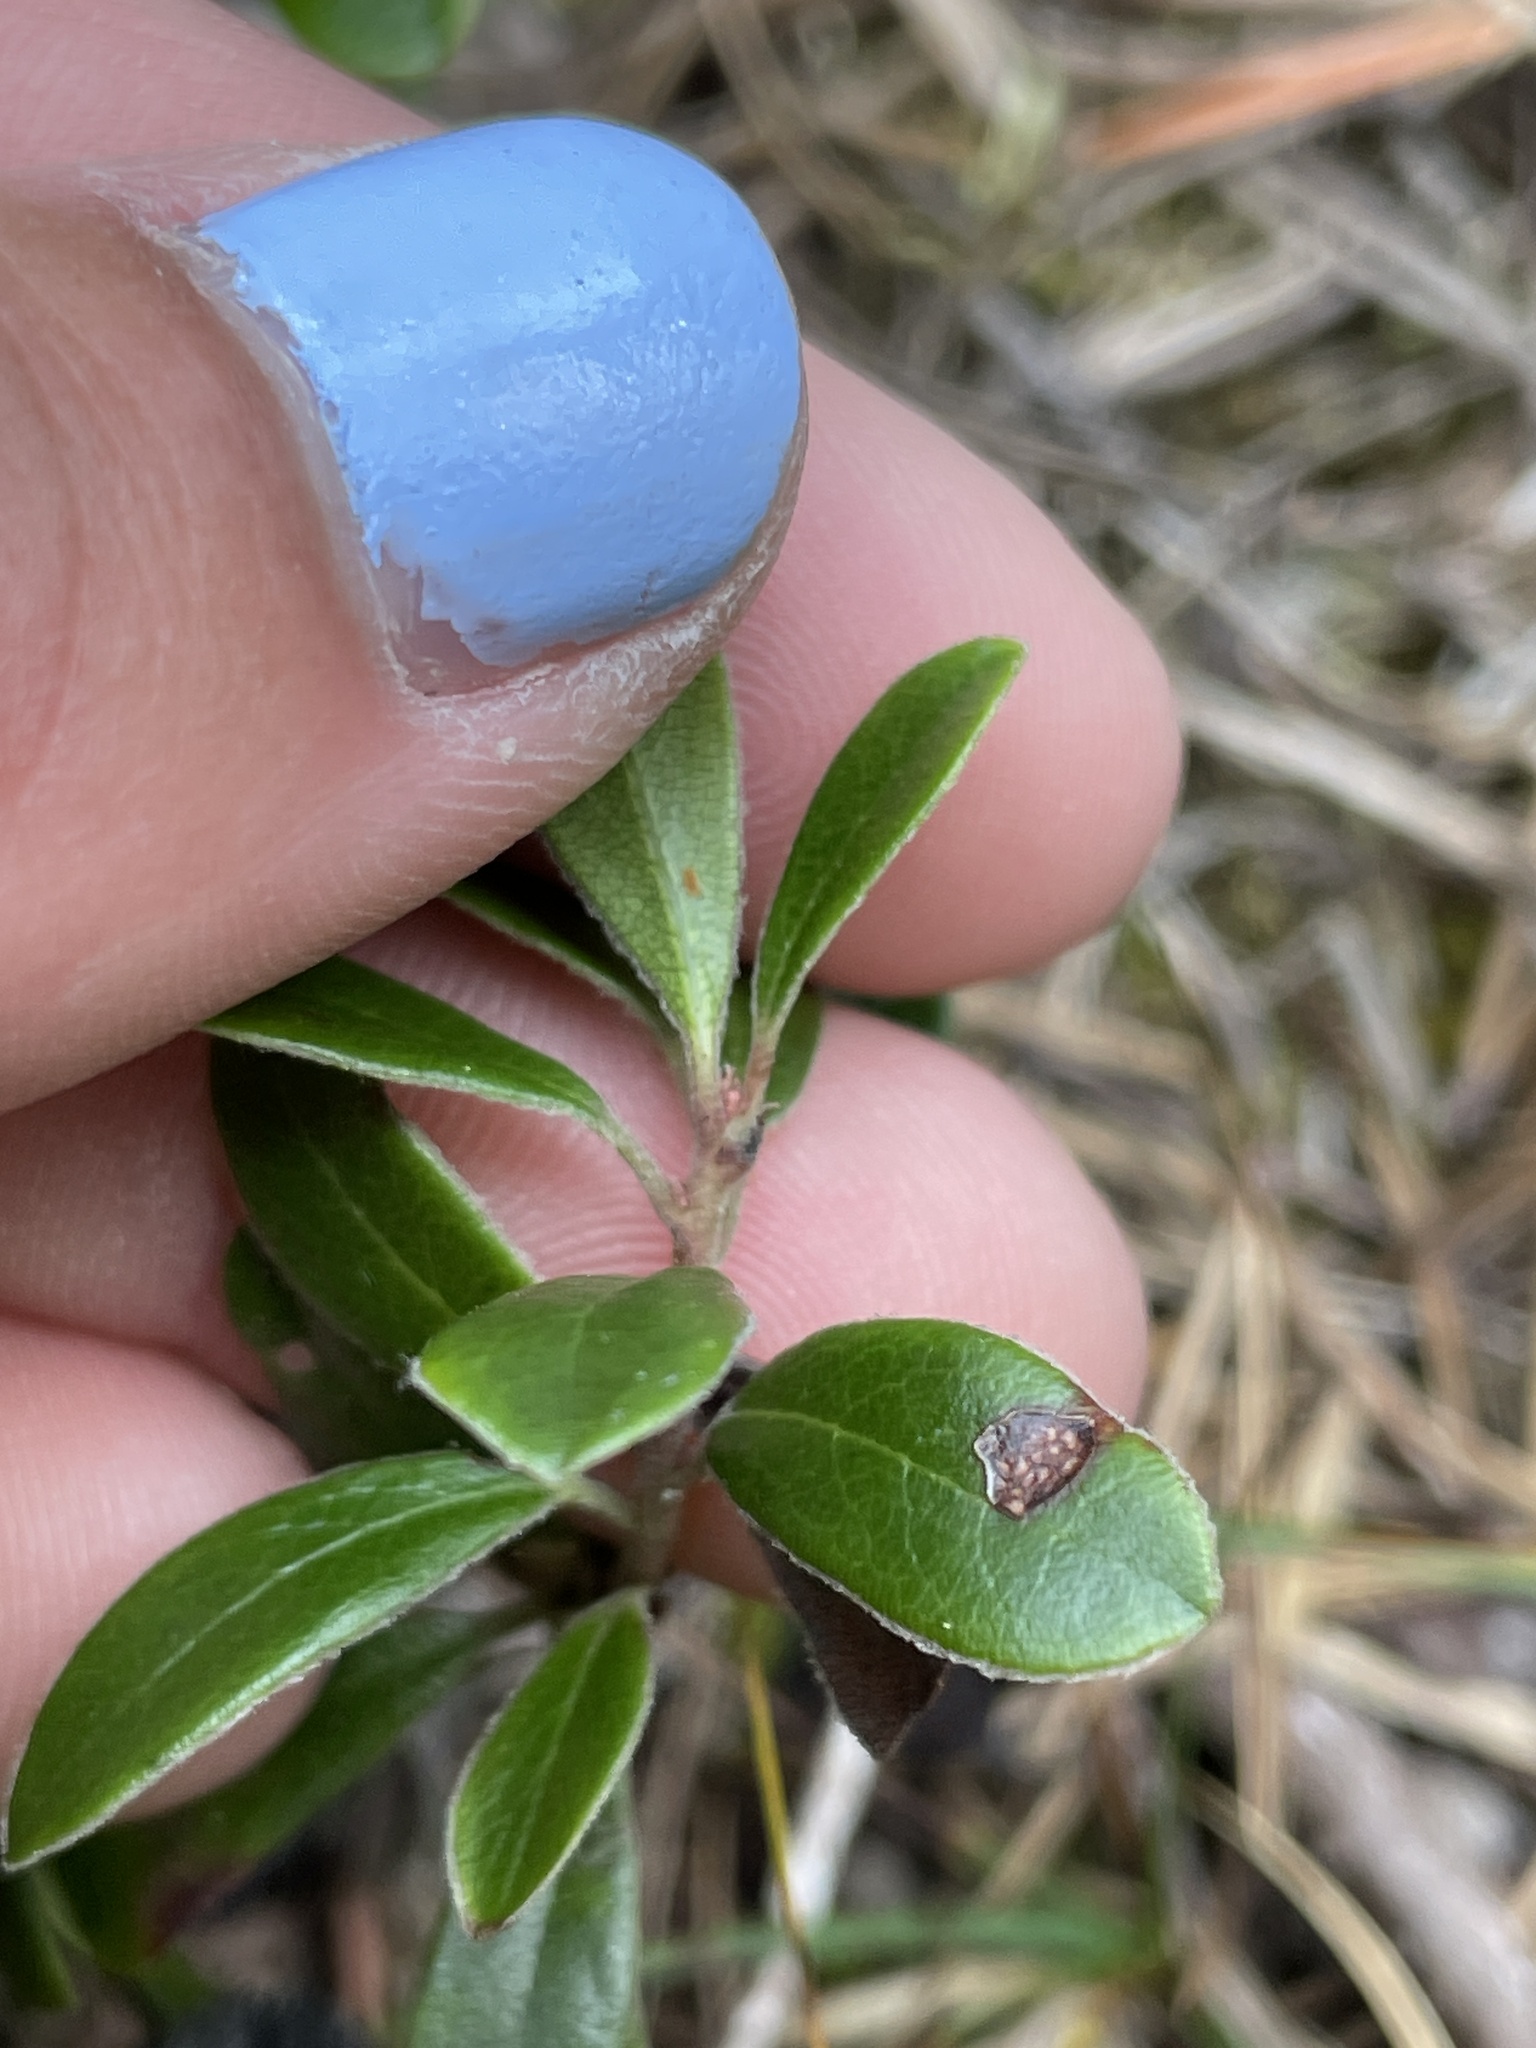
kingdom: Plantae
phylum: Tracheophyta
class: Magnoliopsida
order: Ericales
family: Ericaceae
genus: Arctostaphylos
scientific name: Arctostaphylos uva-ursi
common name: Bearberry
